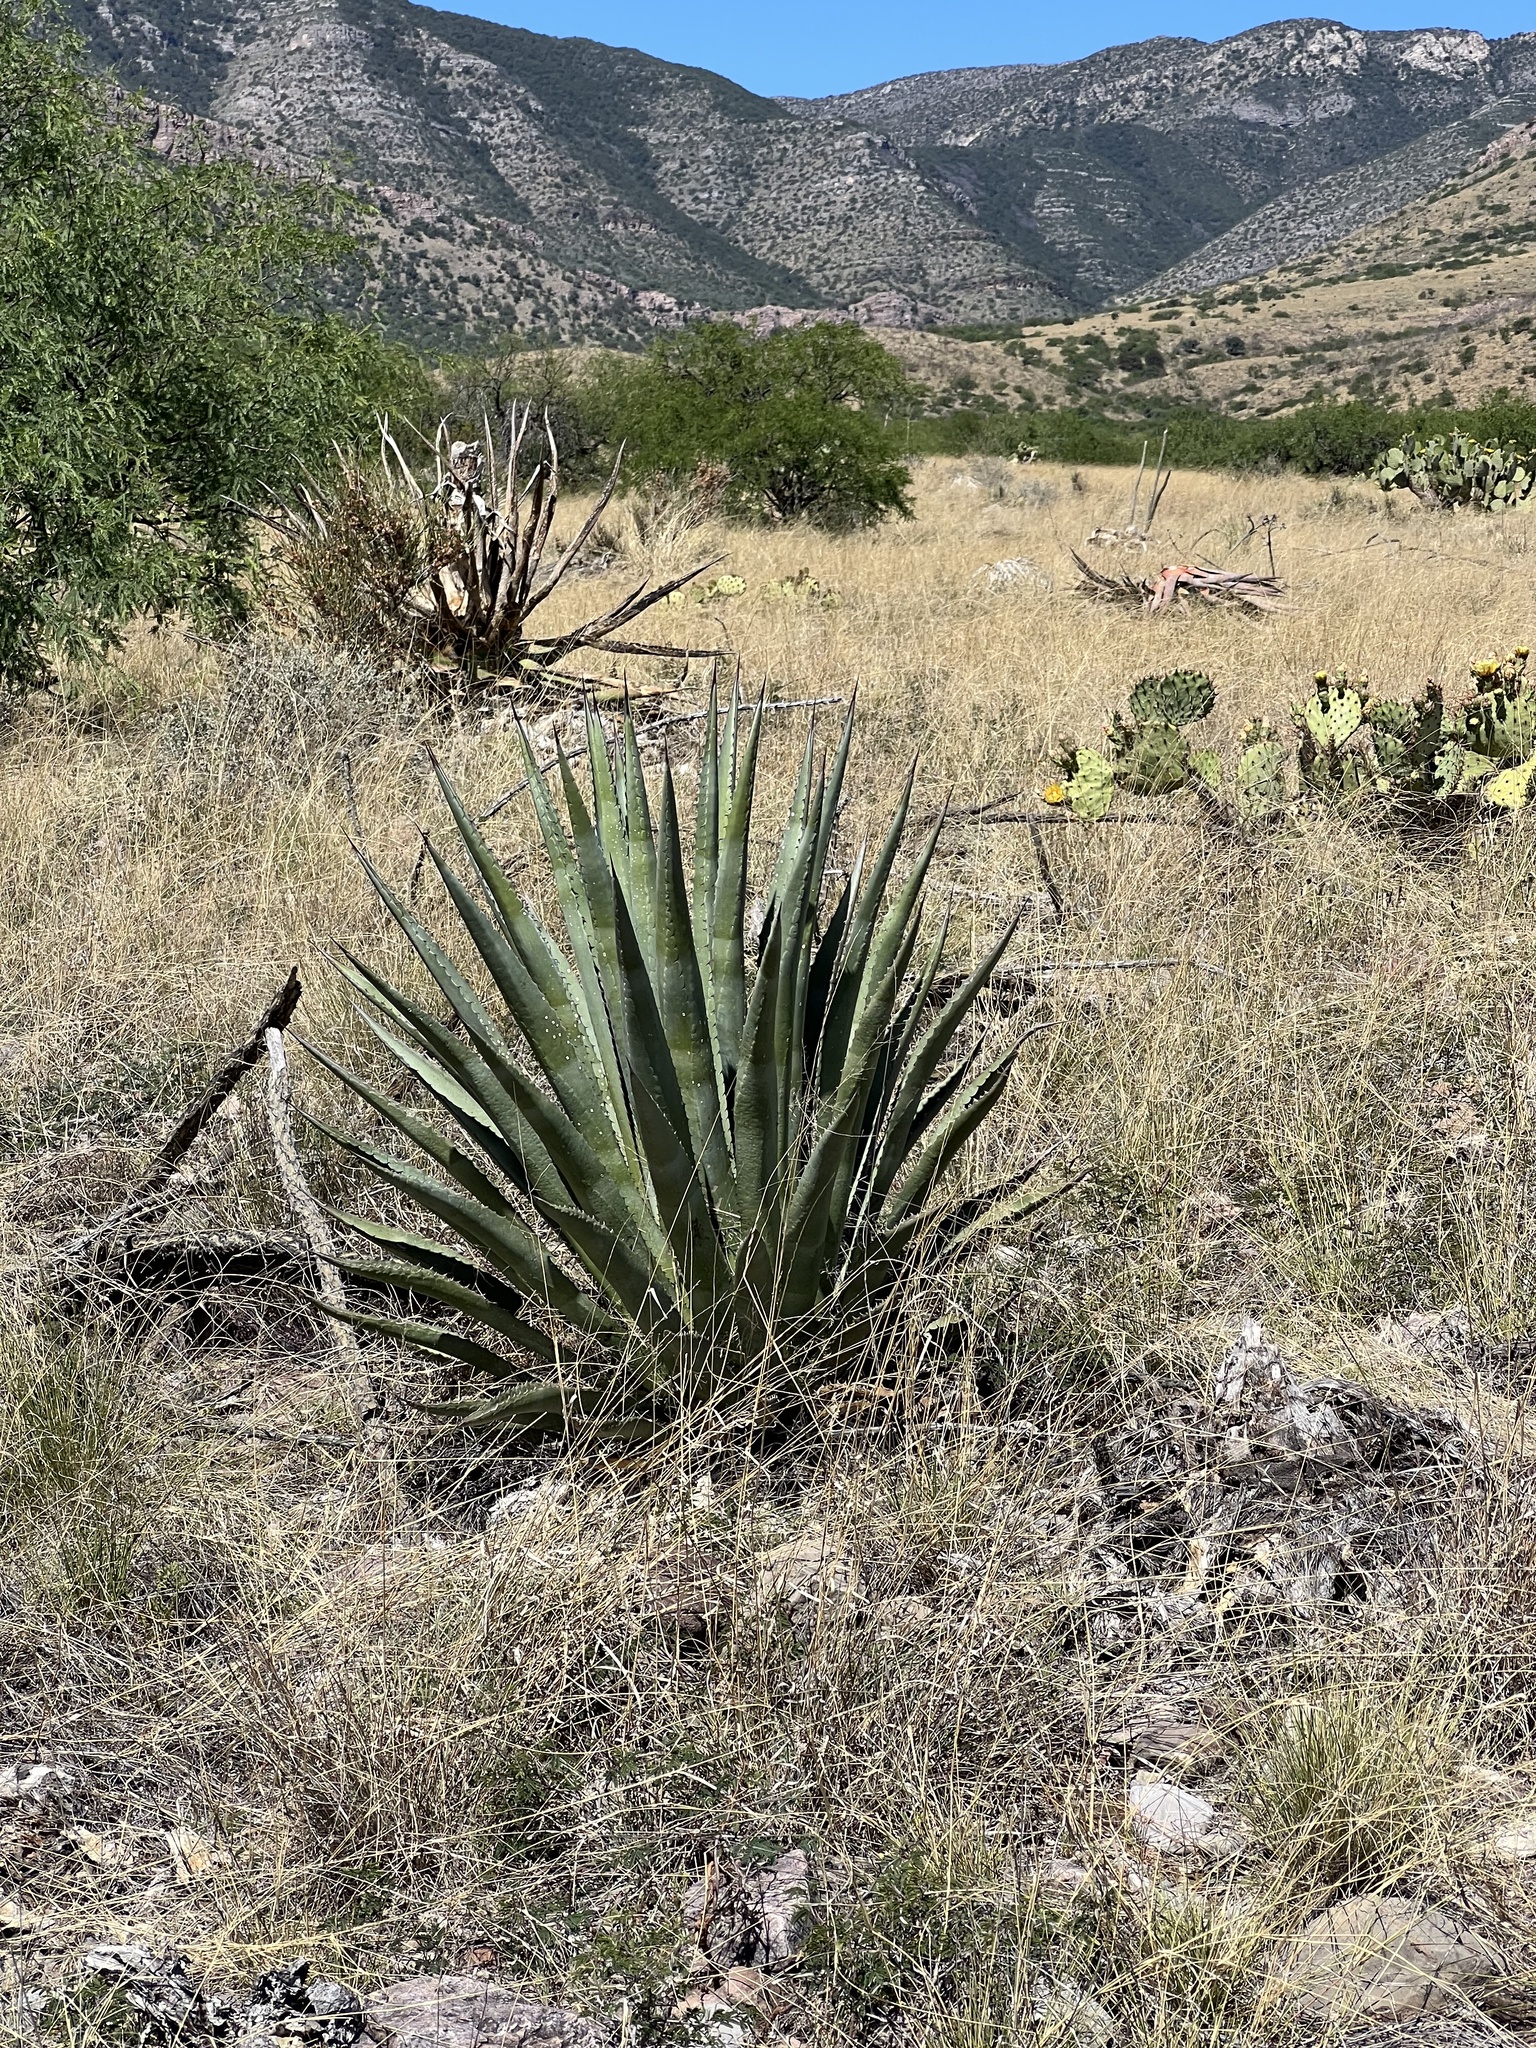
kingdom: Plantae
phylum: Tracheophyta
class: Liliopsida
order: Asparagales
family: Asparagaceae
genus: Agave
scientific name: Agave palmeri
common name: Palmer agave
